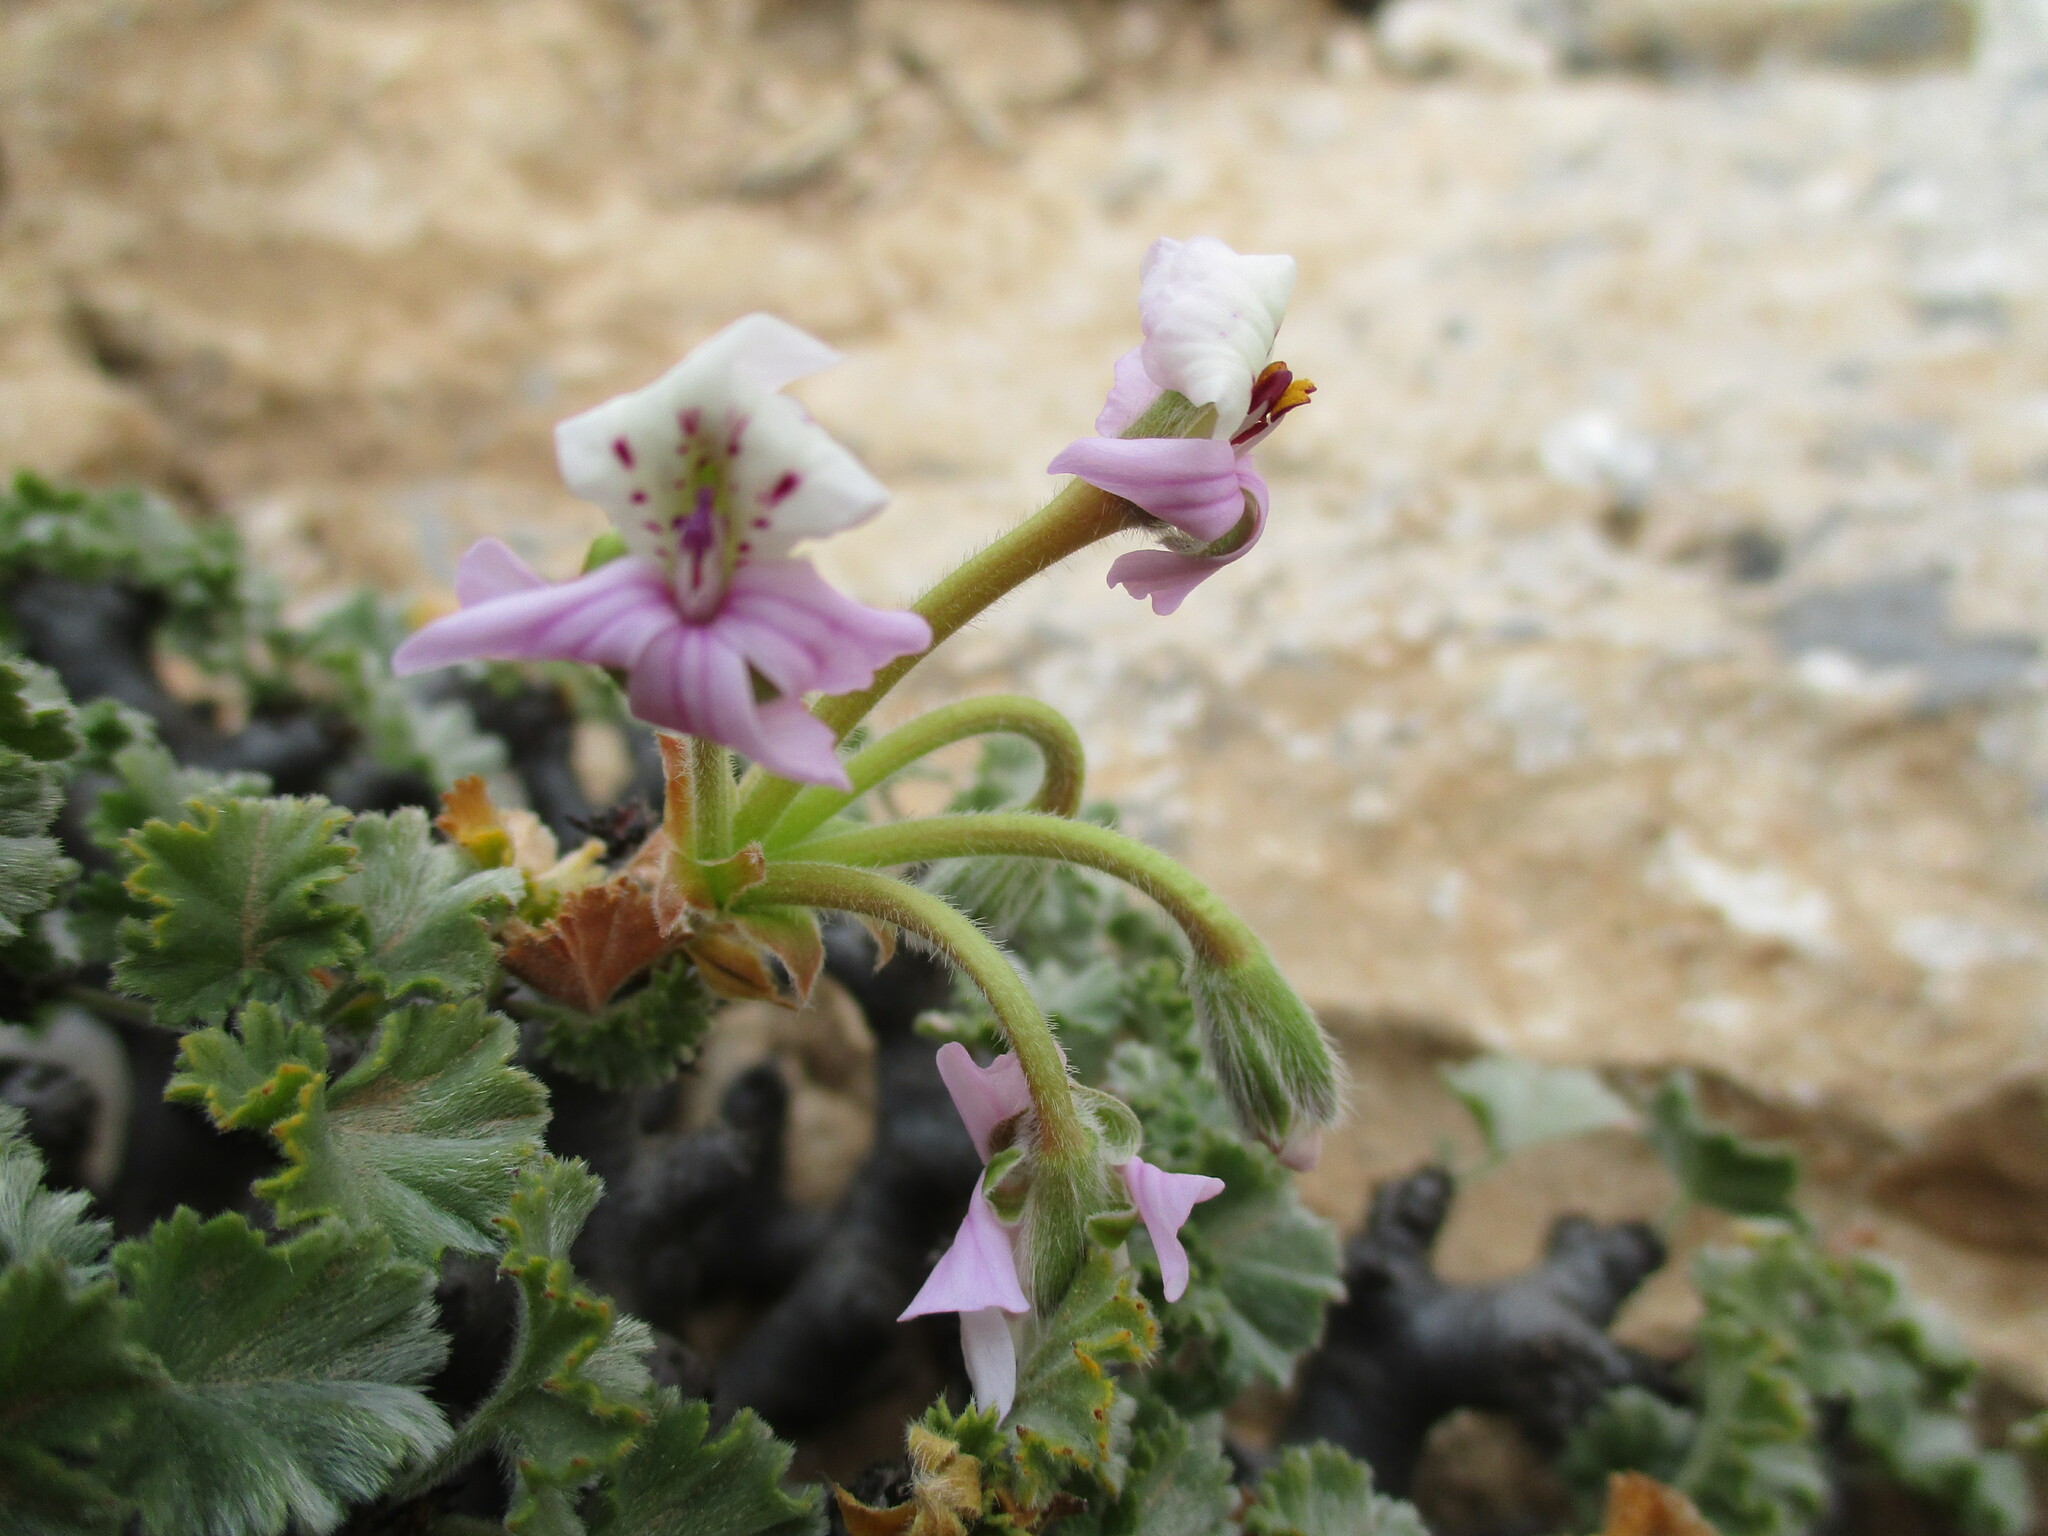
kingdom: Plantae
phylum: Tracheophyta
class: Magnoliopsida
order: Geraniales
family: Geraniaceae
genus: Pelargonium
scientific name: Pelargonium crassicaule
